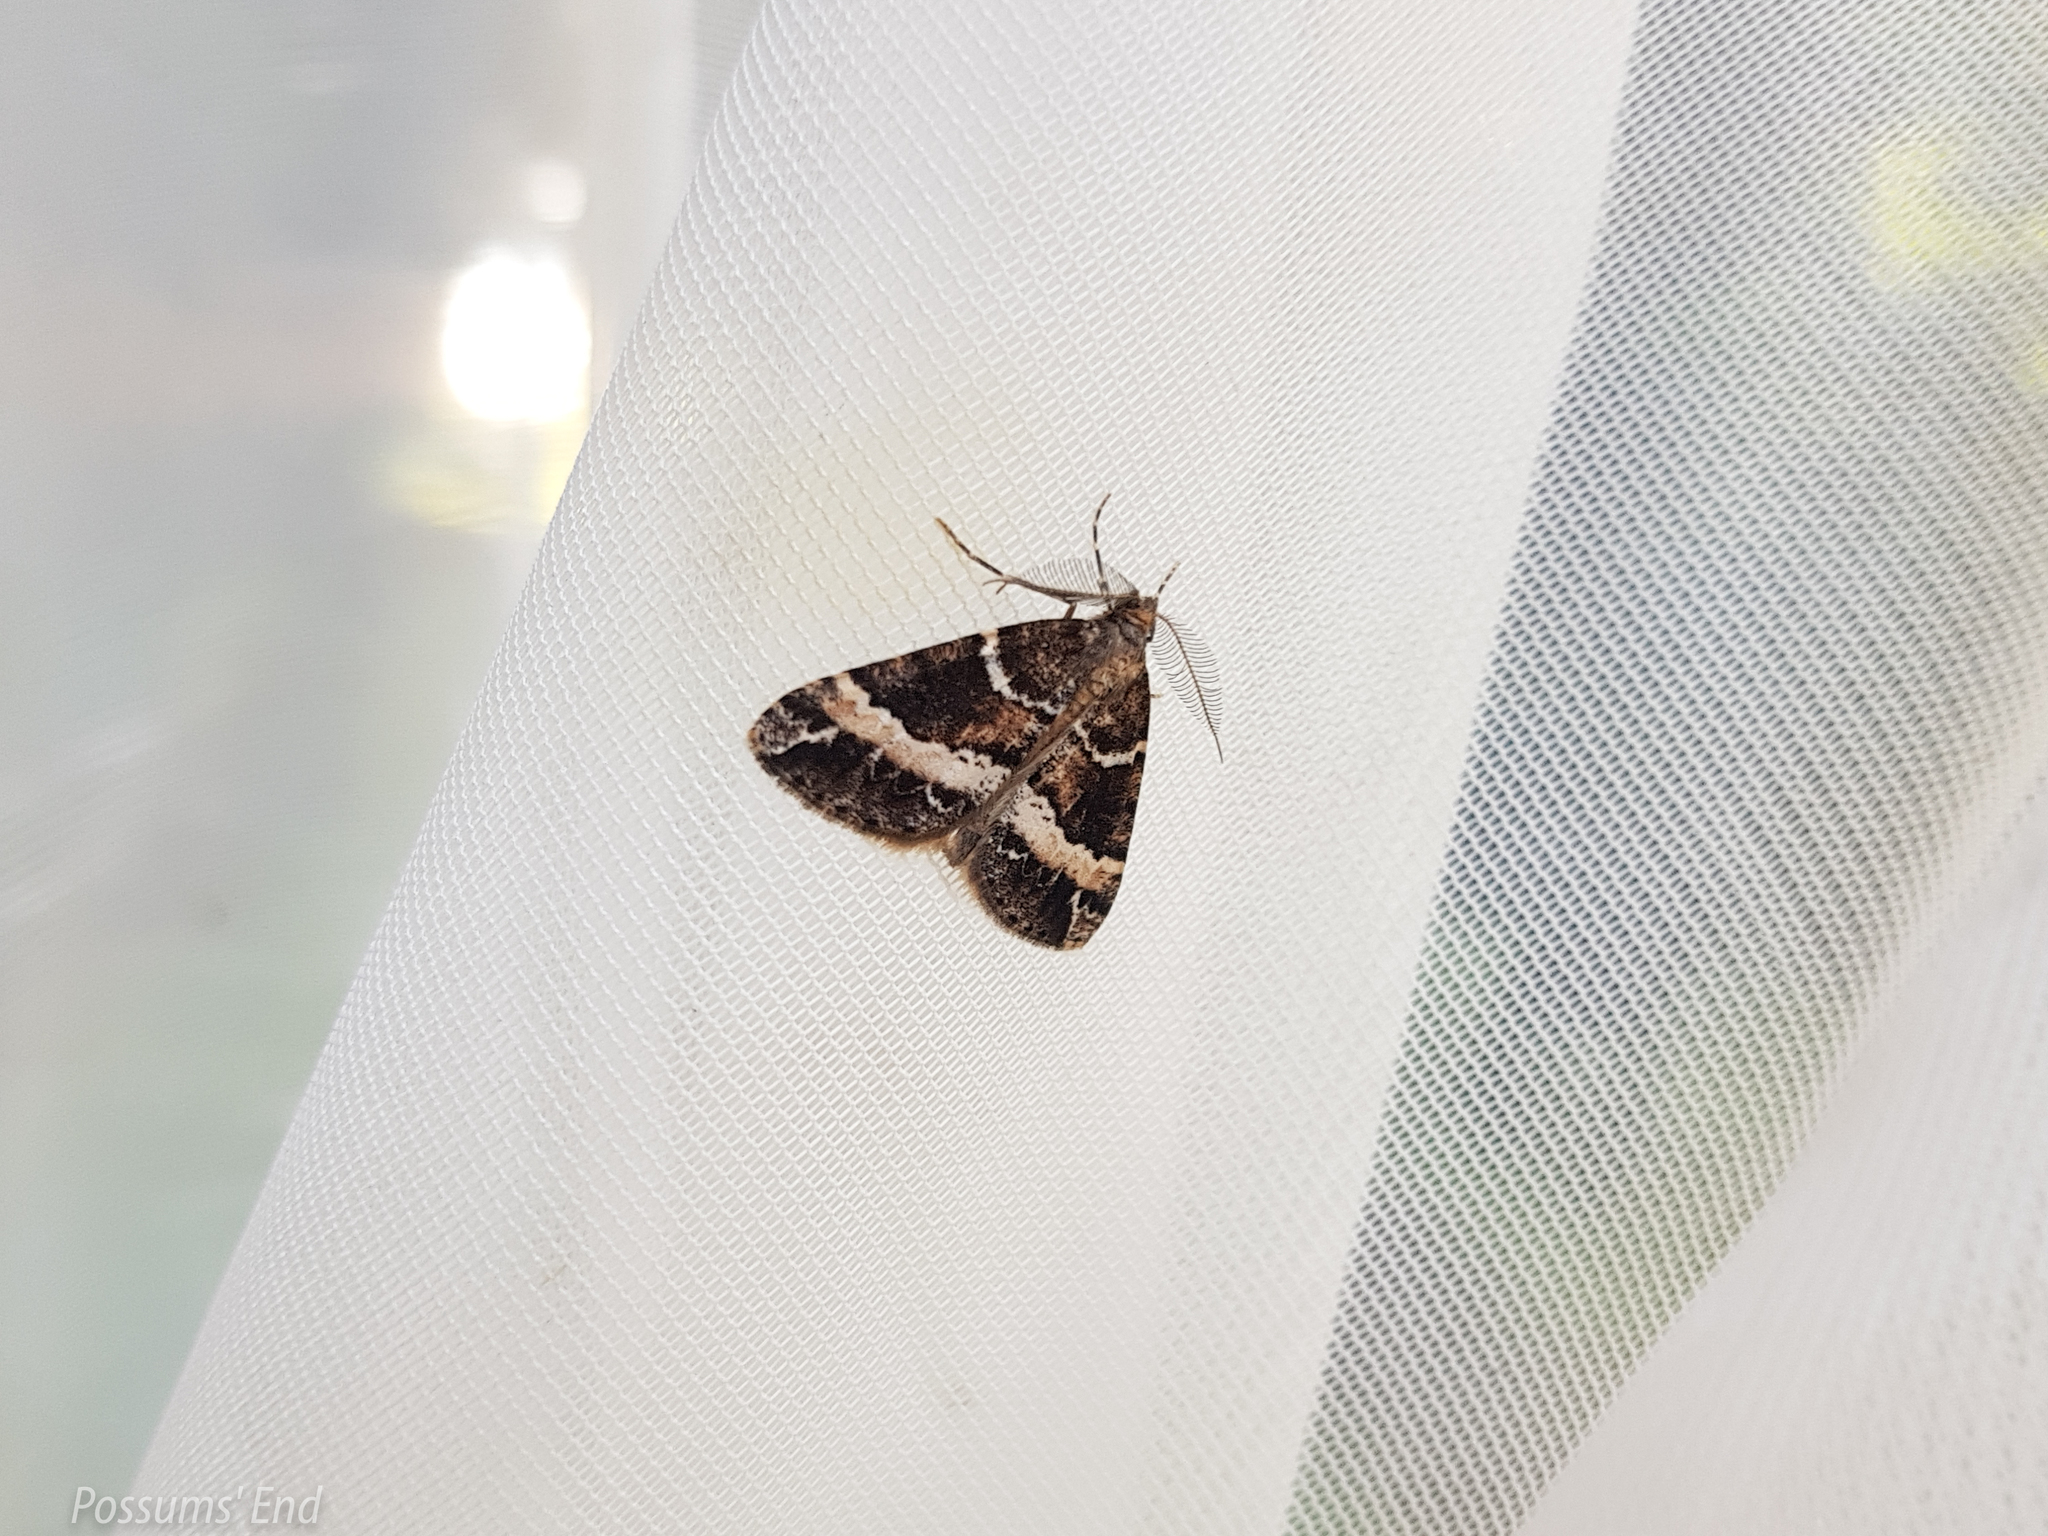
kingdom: Animalia
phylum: Arthropoda
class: Insecta
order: Lepidoptera
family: Geometridae
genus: Pseudocoremia
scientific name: Pseudocoremia
